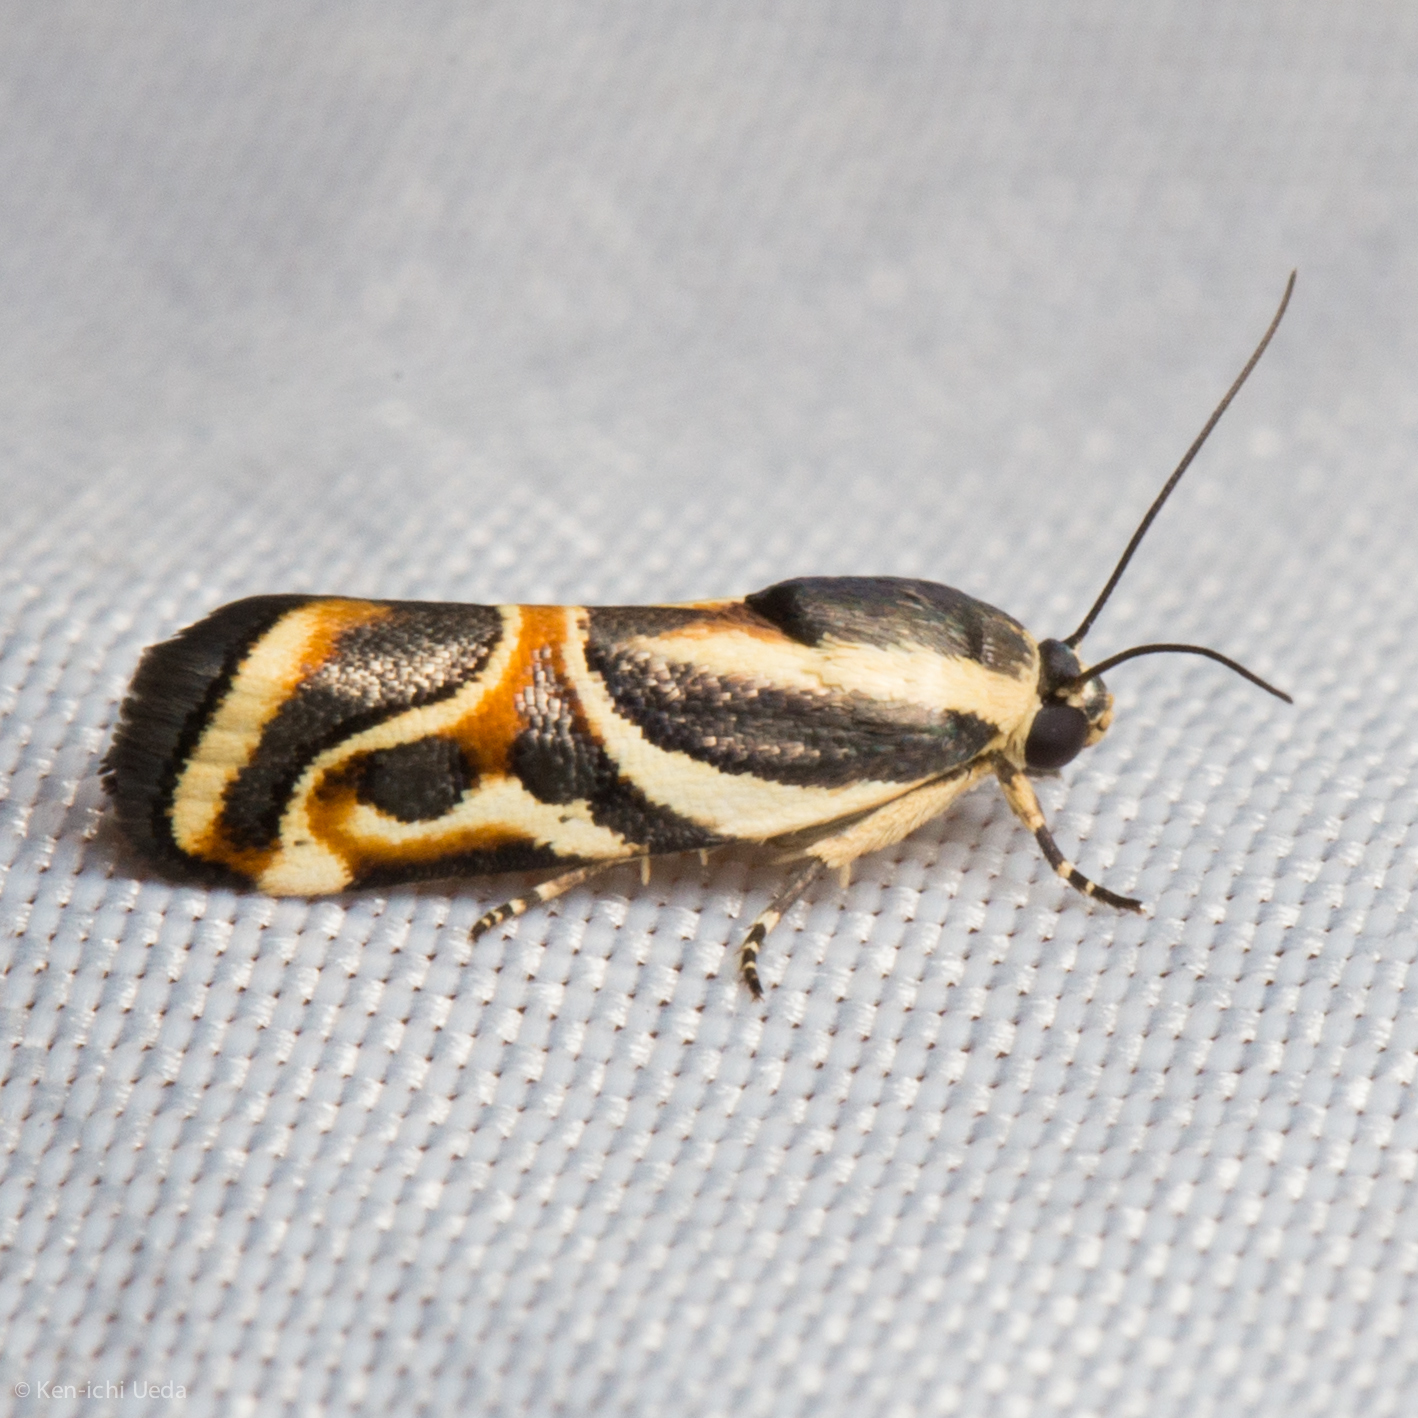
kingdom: Animalia
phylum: Arthropoda
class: Insecta
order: Lepidoptera
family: Noctuidae
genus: Spragueia
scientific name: Spragueia magnifica
